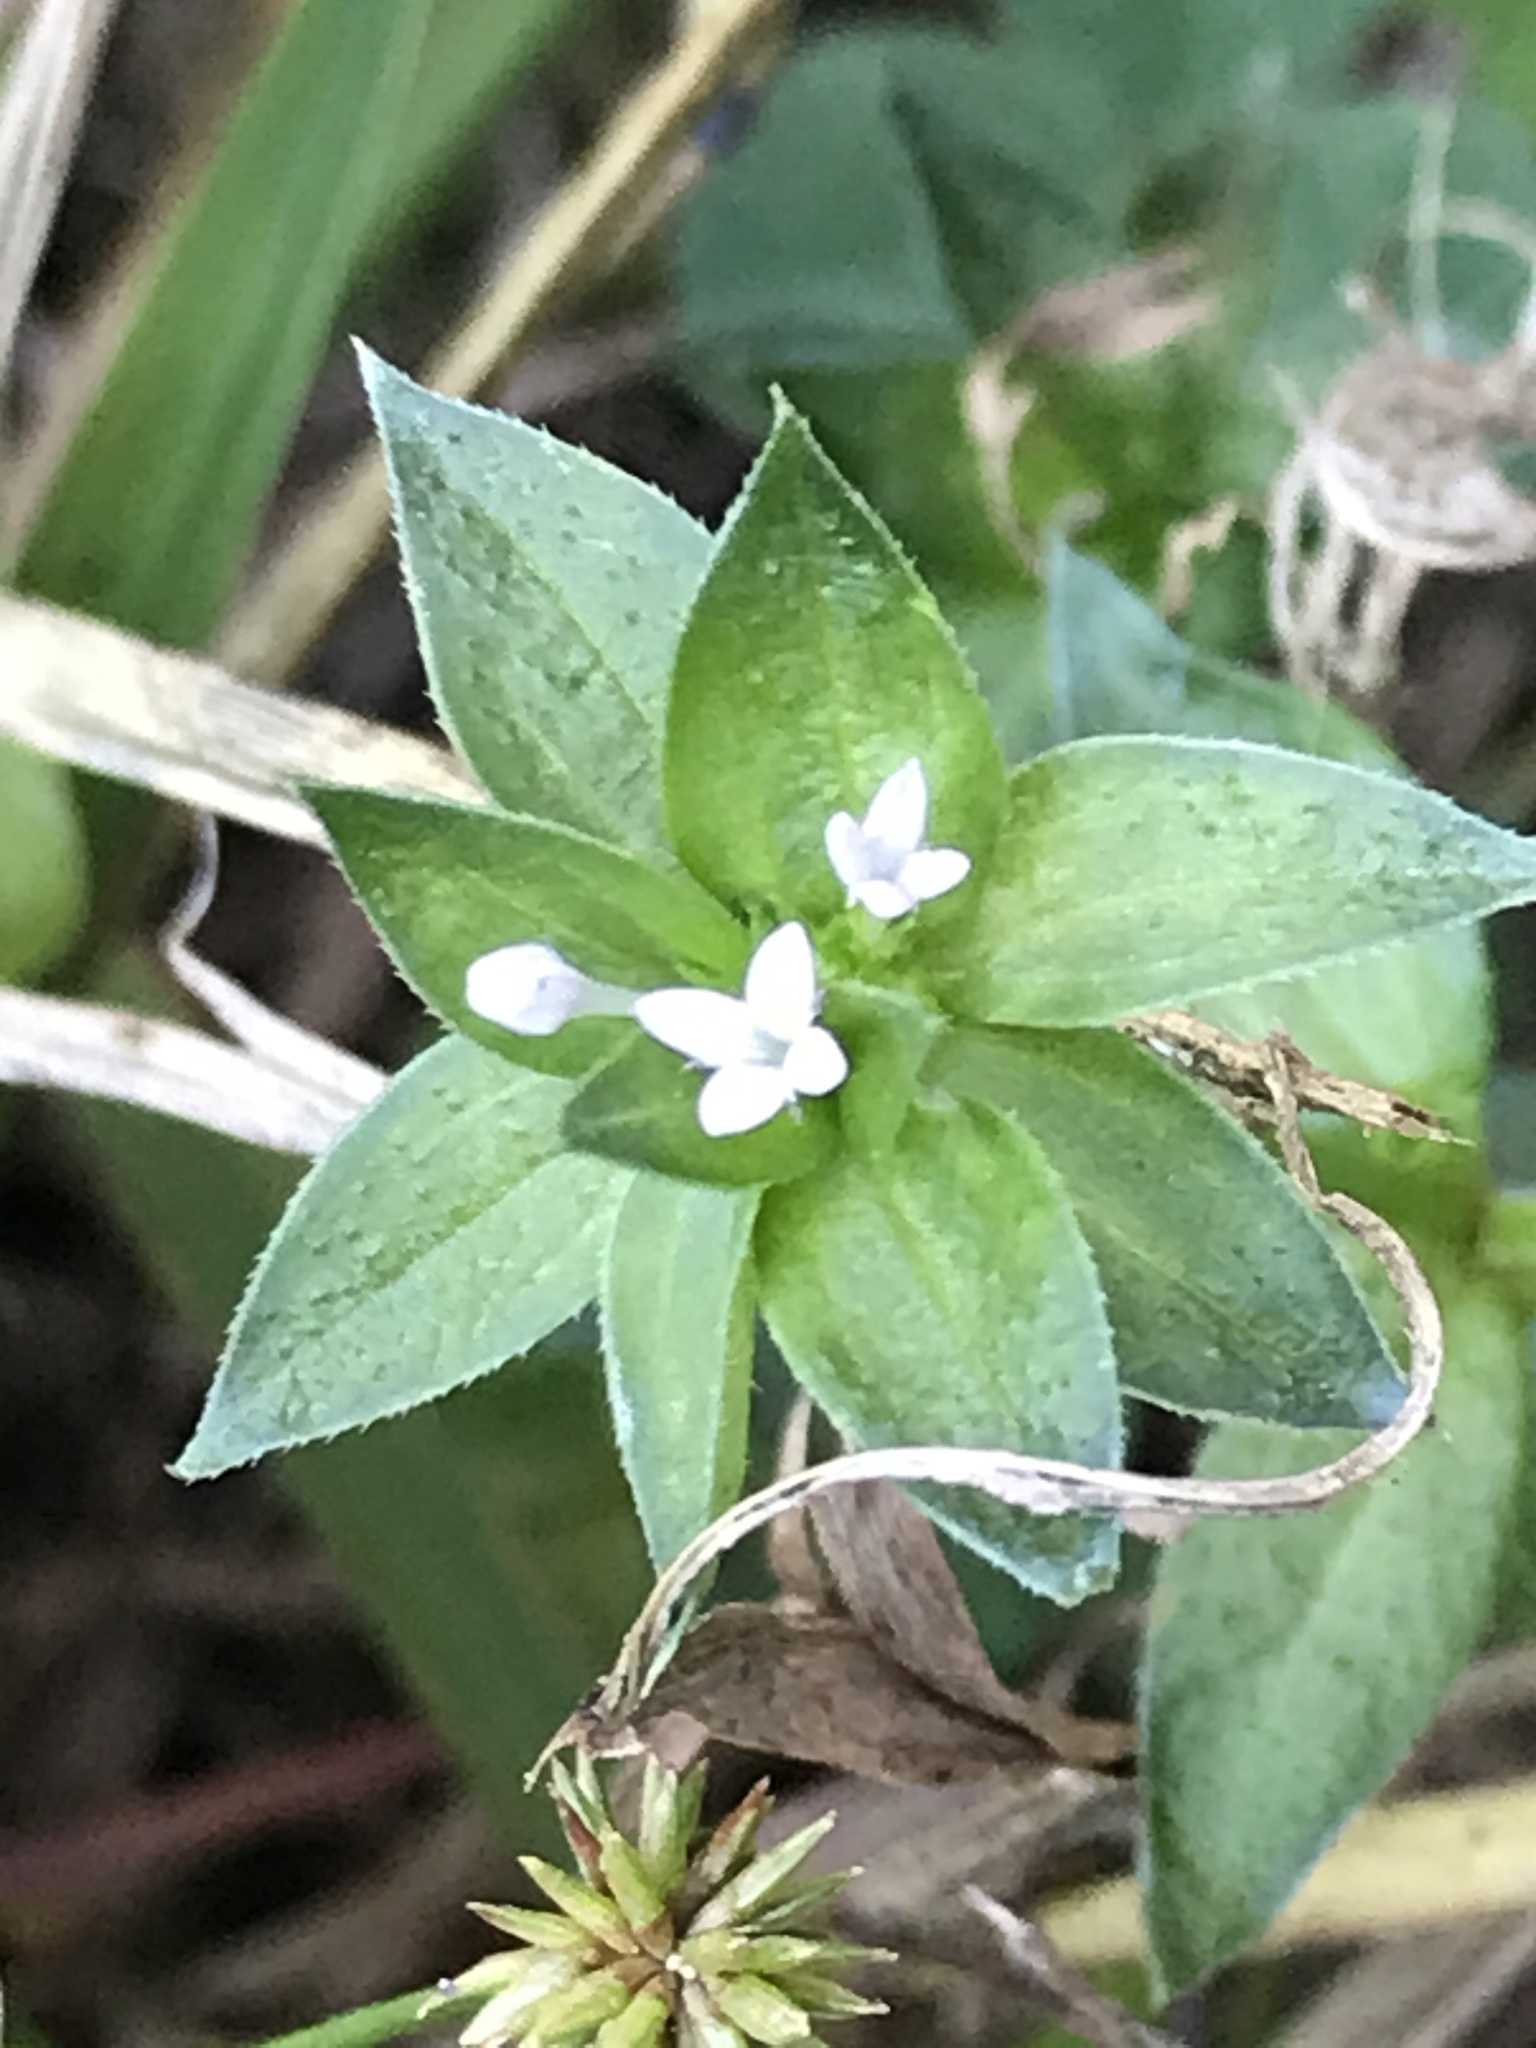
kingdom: Plantae
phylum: Tracheophyta
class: Magnoliopsida
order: Gentianales
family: Rubiaceae
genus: Sherardia
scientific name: Sherardia arvensis
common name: Field madder
